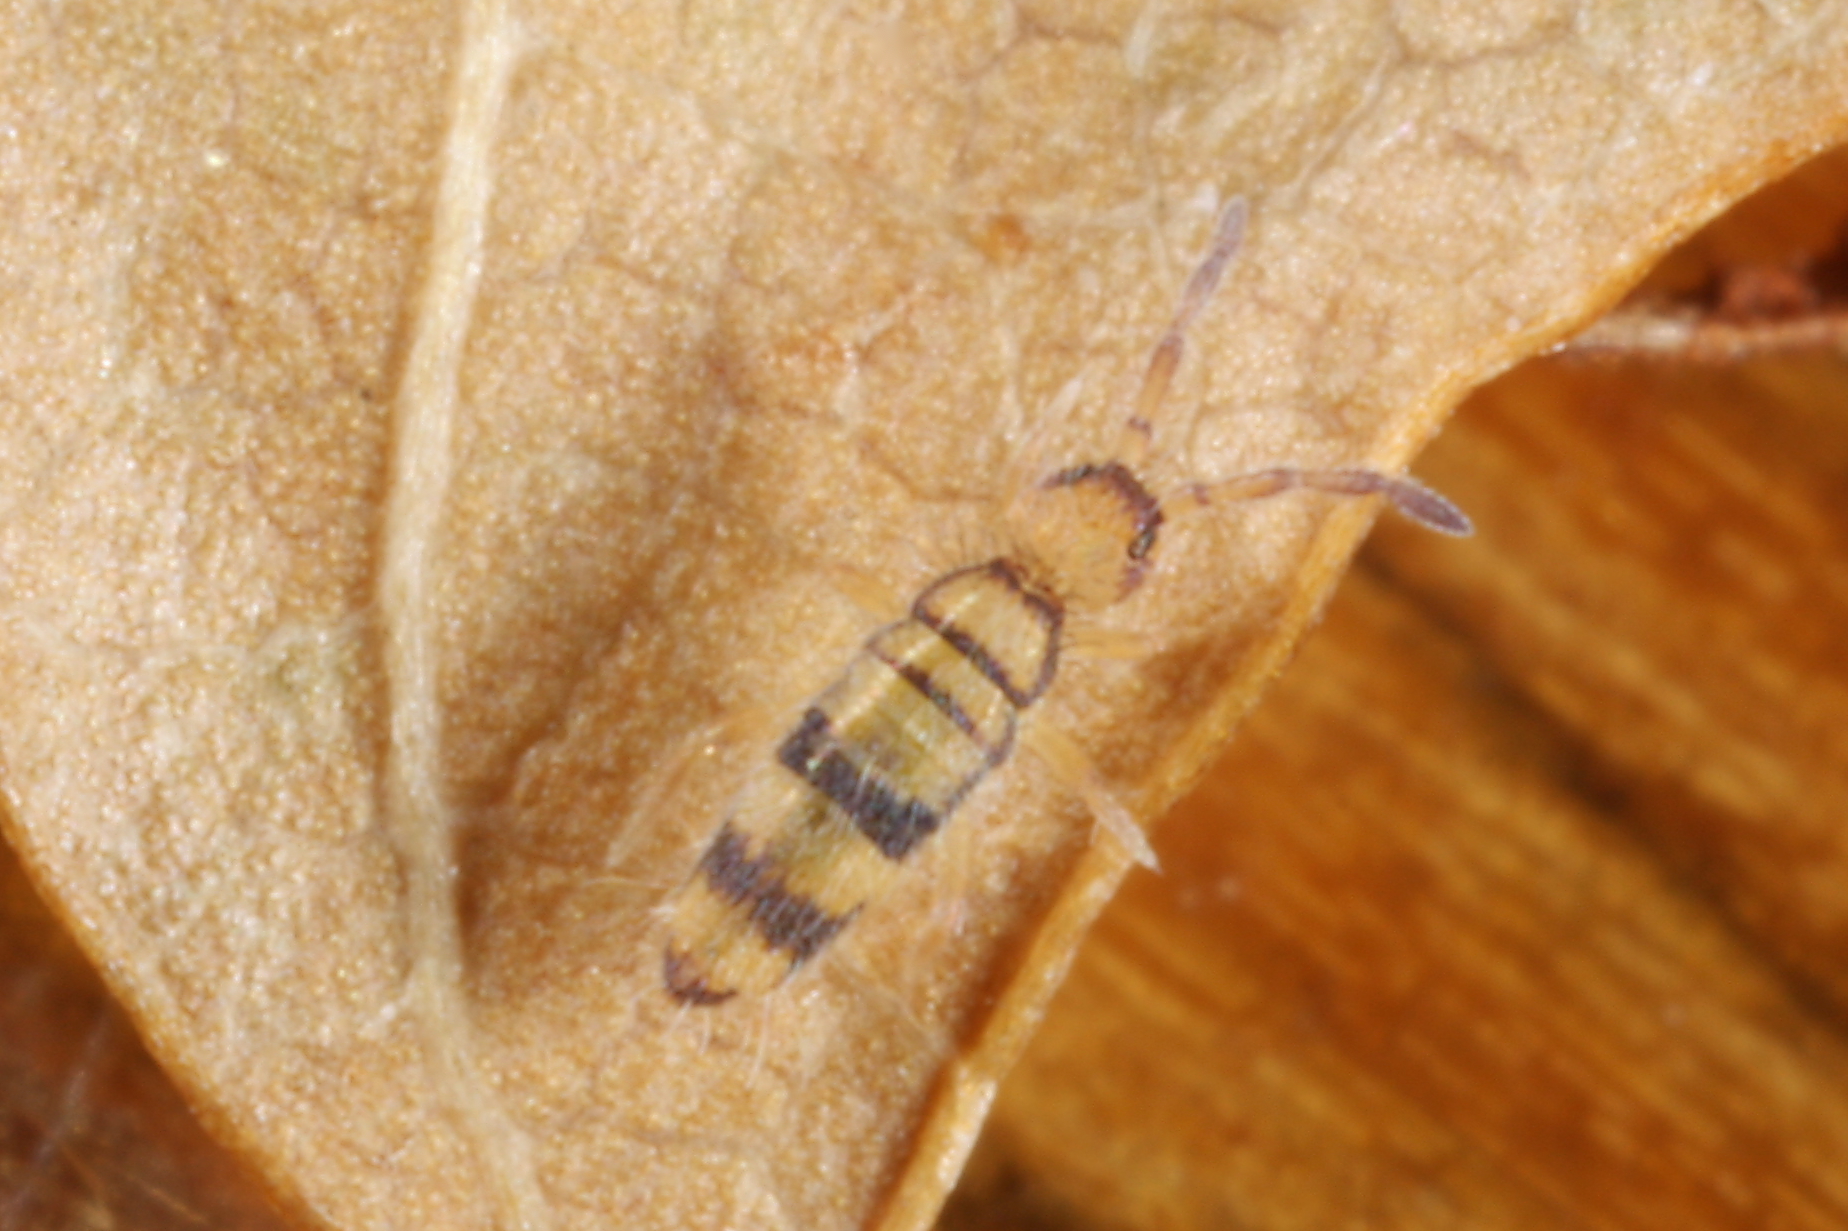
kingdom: Animalia
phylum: Arthropoda
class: Collembola
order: Entomobryomorpha
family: Entomobryidae
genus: Entomobrya
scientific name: Entomobrya corticalis
